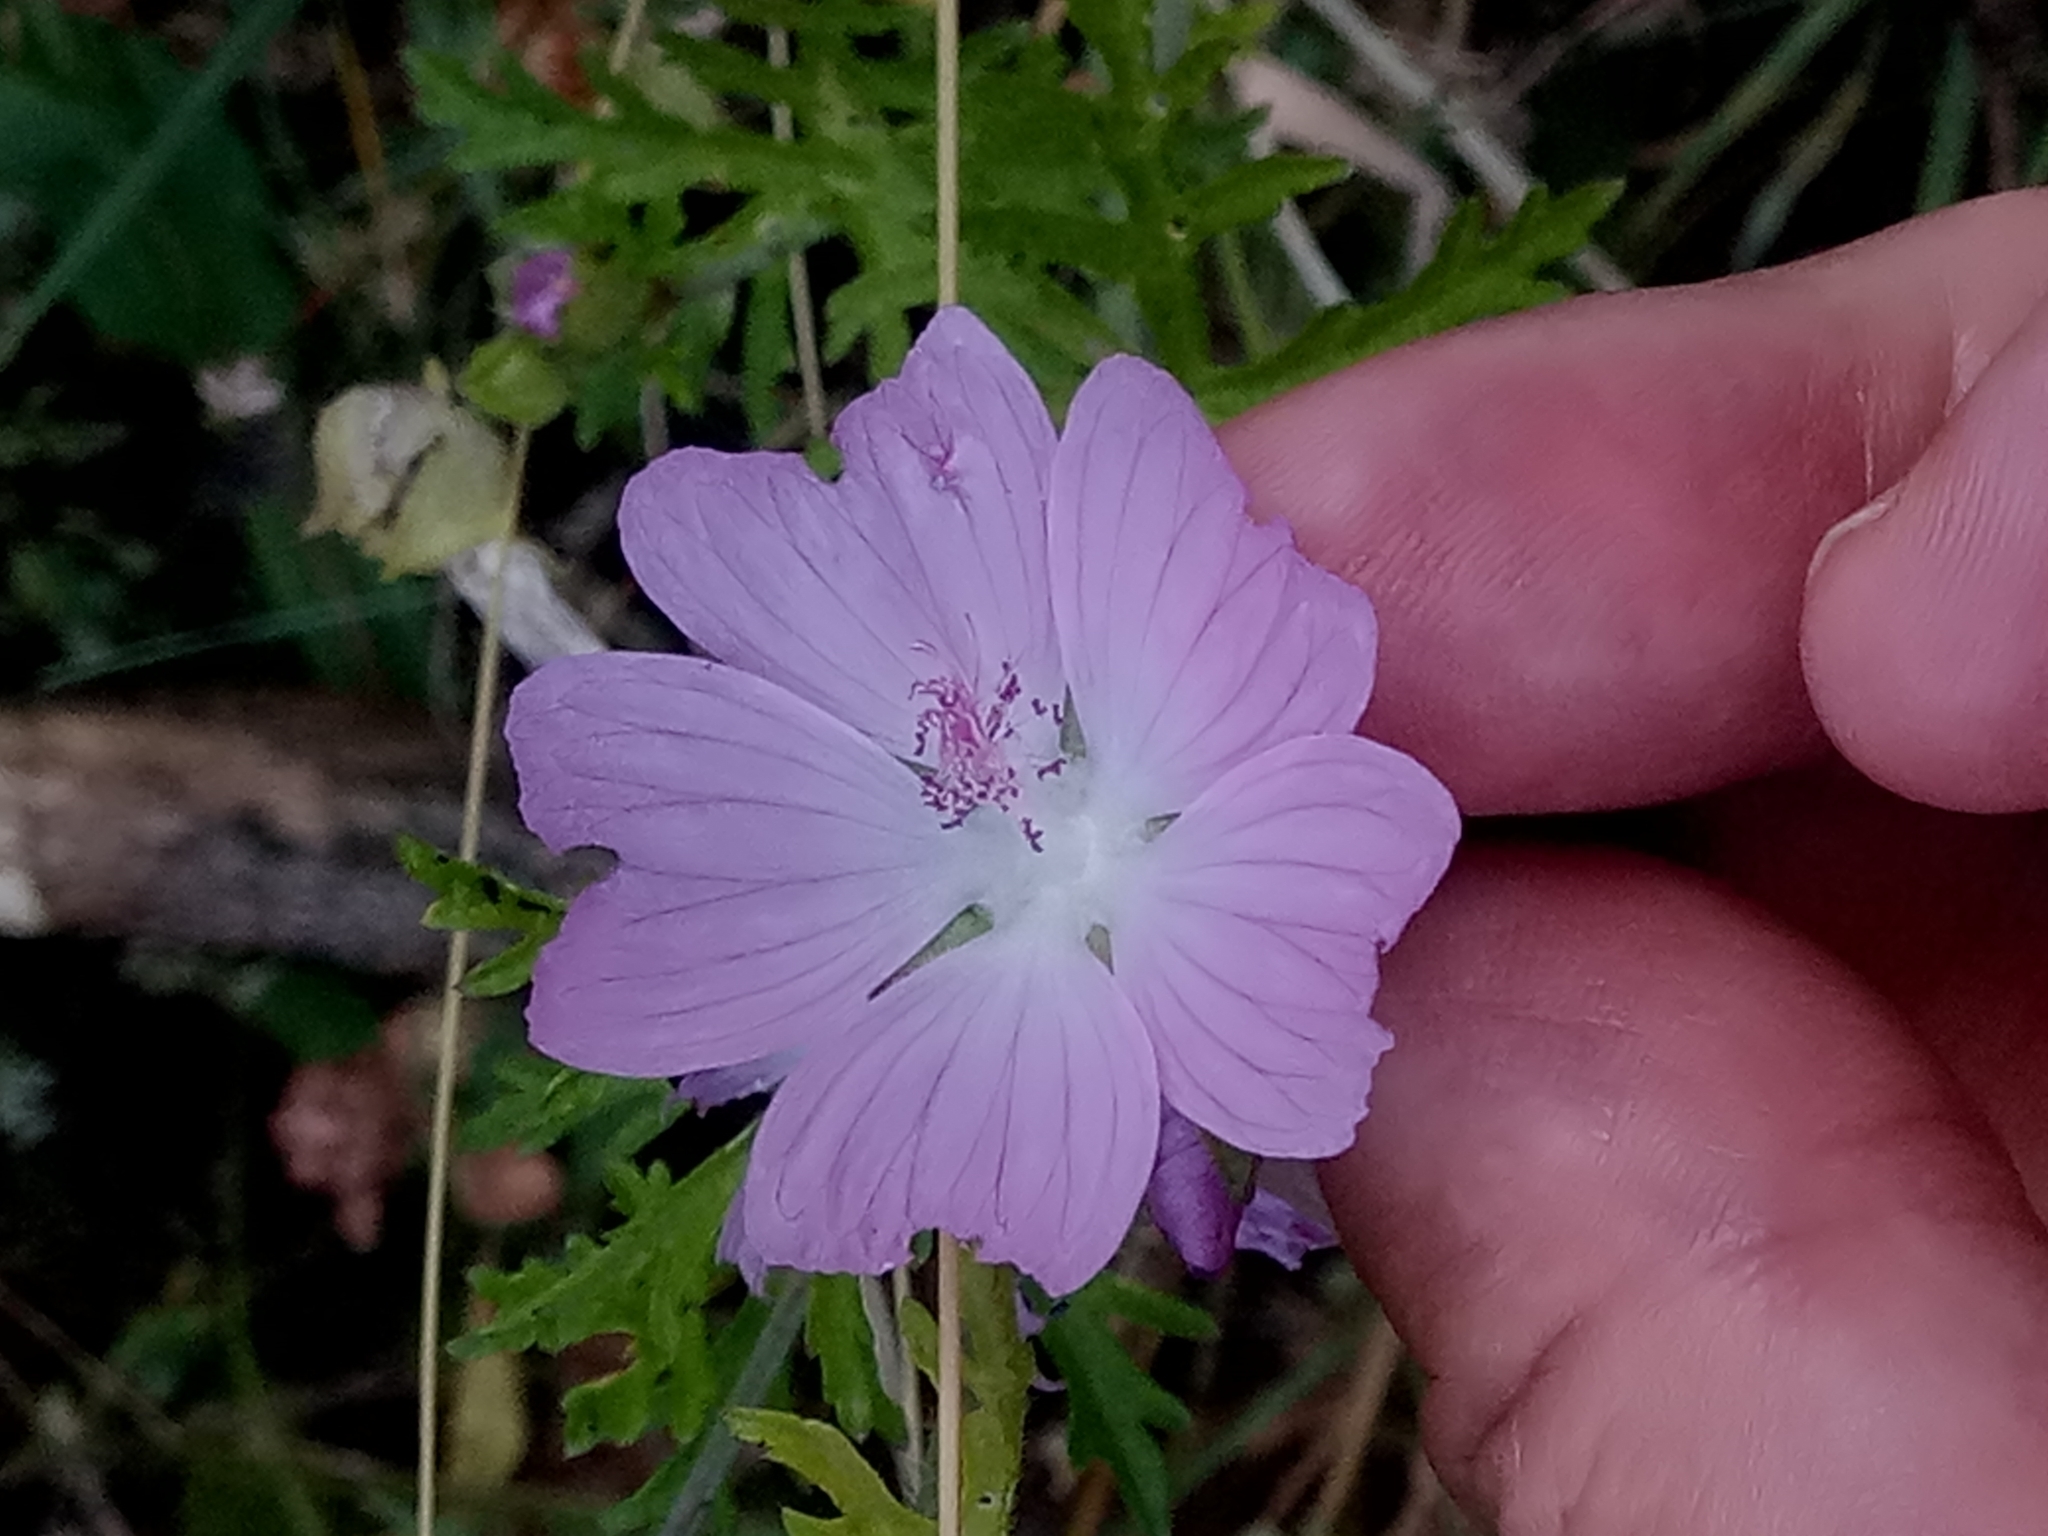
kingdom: Plantae
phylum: Tracheophyta
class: Magnoliopsida
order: Malvales
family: Malvaceae
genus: Malva
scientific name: Malva moschata
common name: Musk mallow
